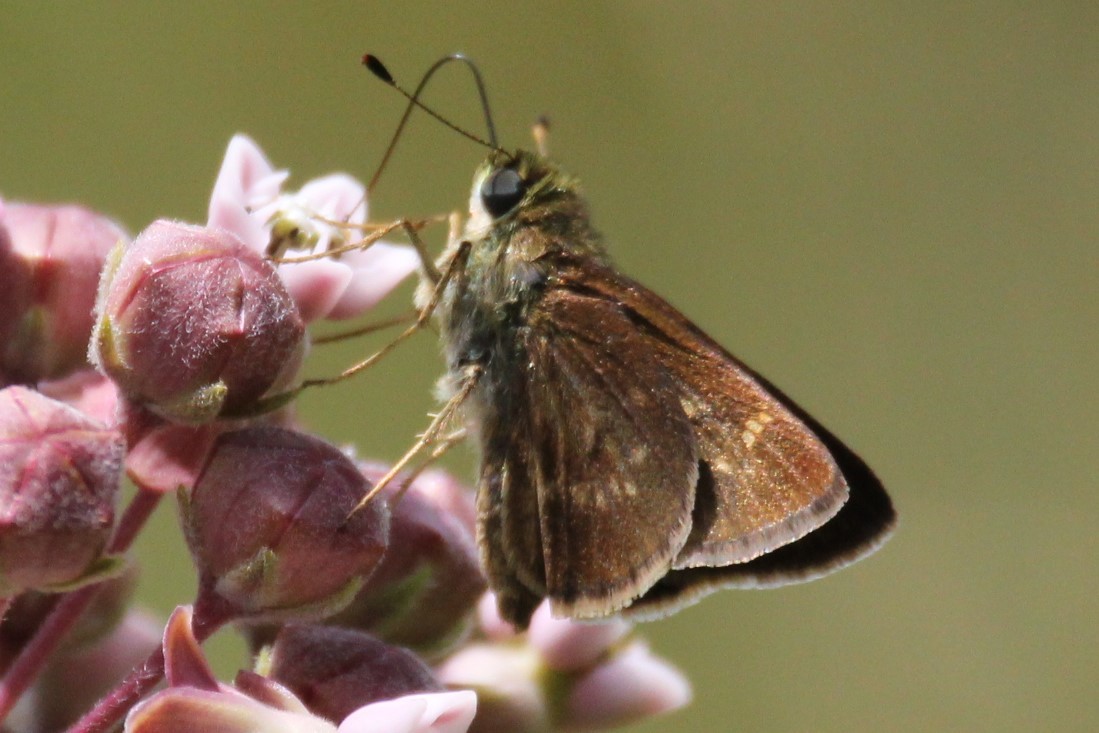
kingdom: Animalia
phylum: Arthropoda
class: Insecta
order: Lepidoptera
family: Hesperiidae
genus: Vernia
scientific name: Vernia verna
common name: Little glassywing
